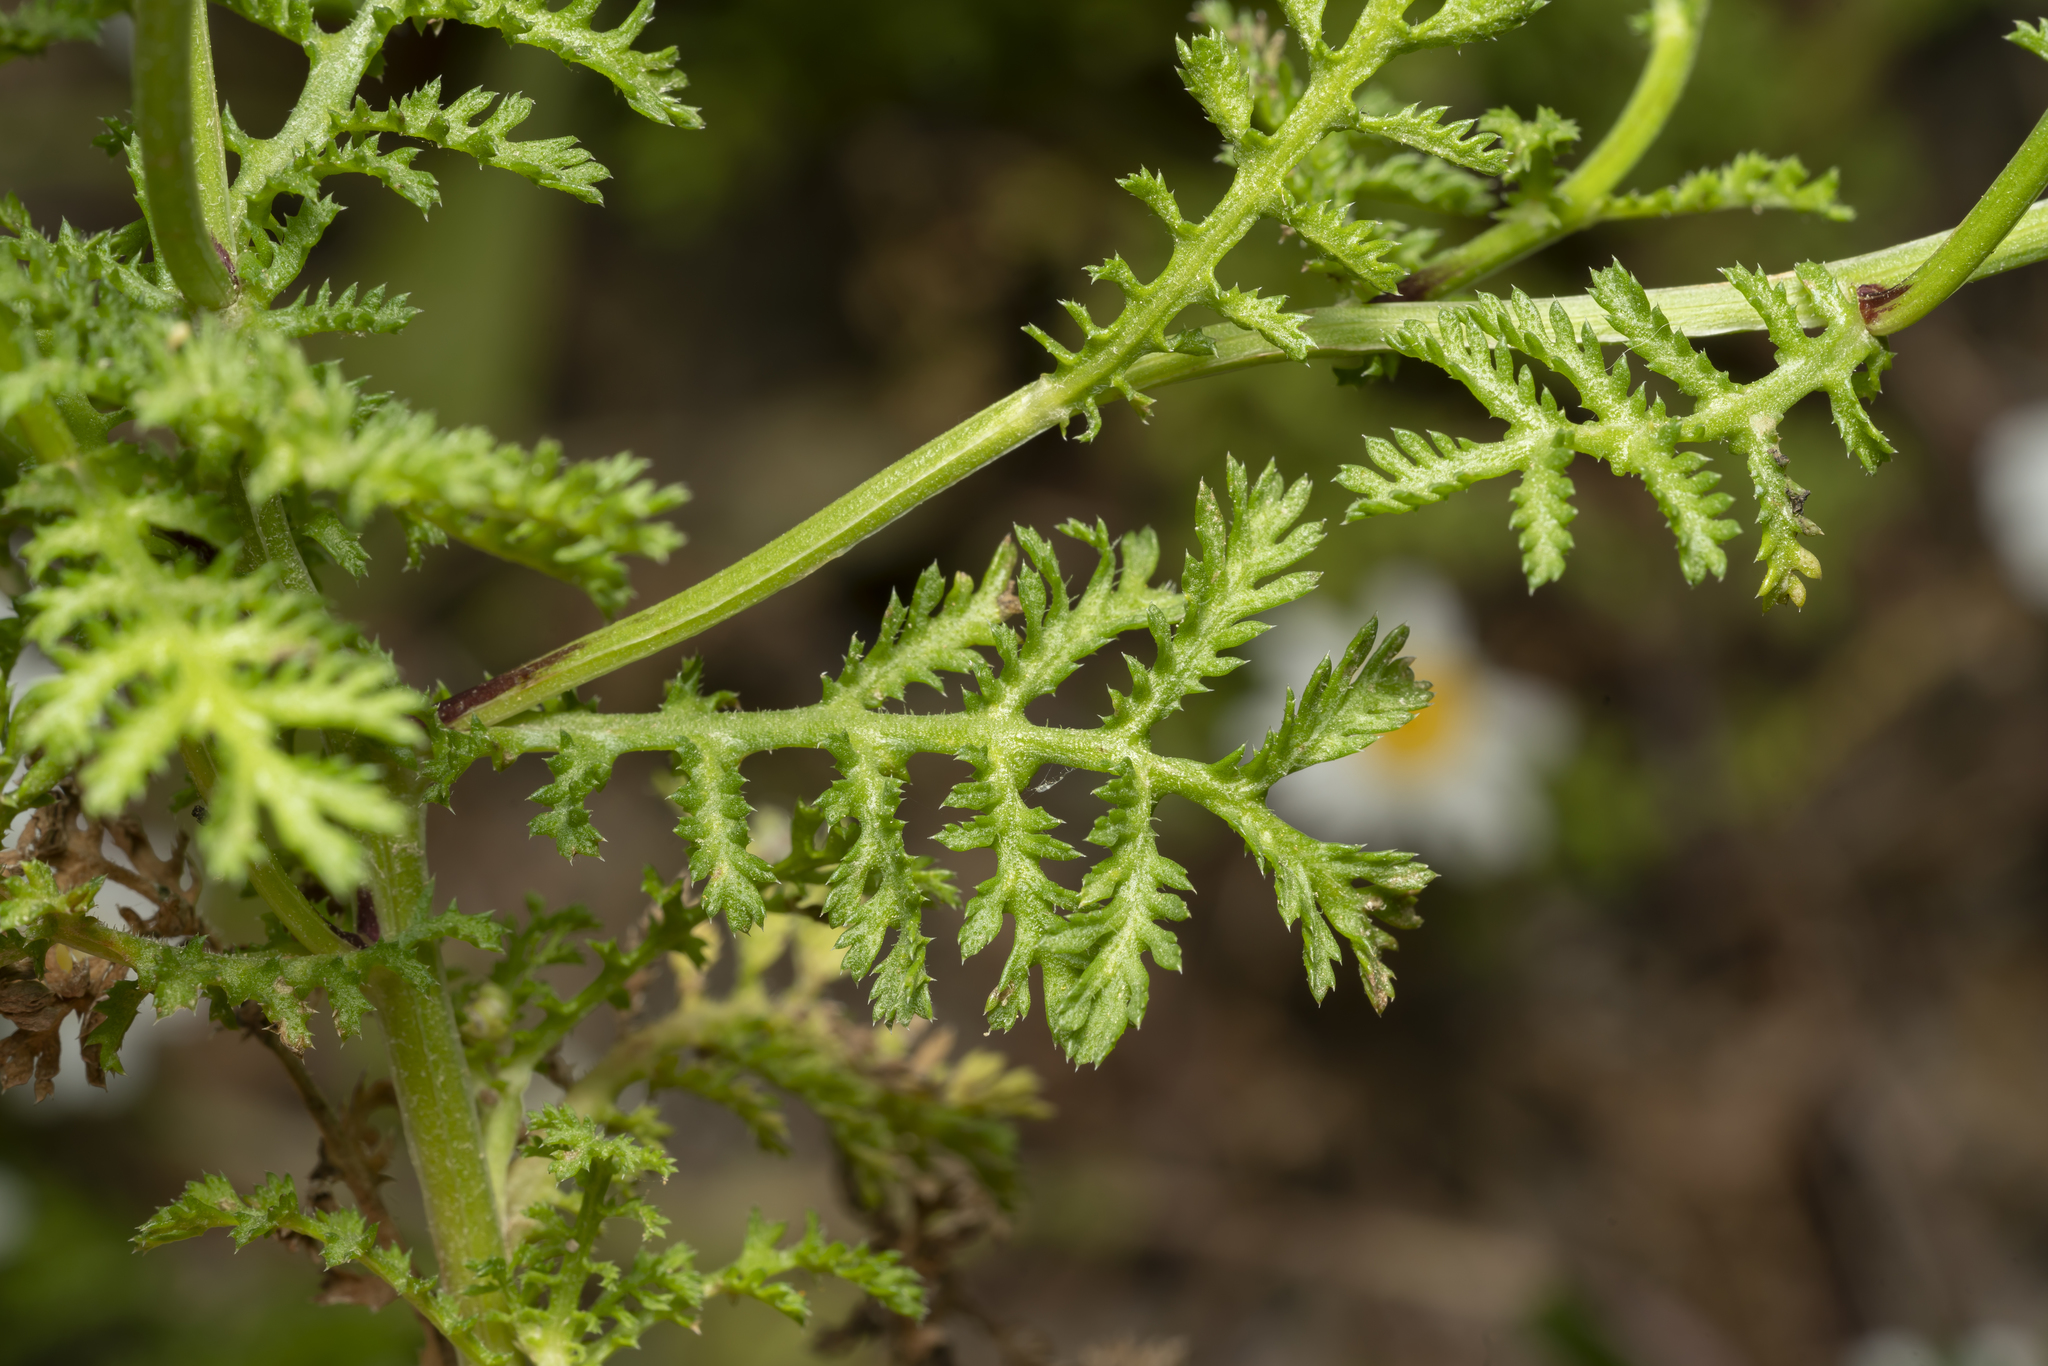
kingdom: Plantae
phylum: Tracheophyta
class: Magnoliopsida
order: Asterales
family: Asteraceae
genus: Cota
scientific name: Cota amblyolepis
